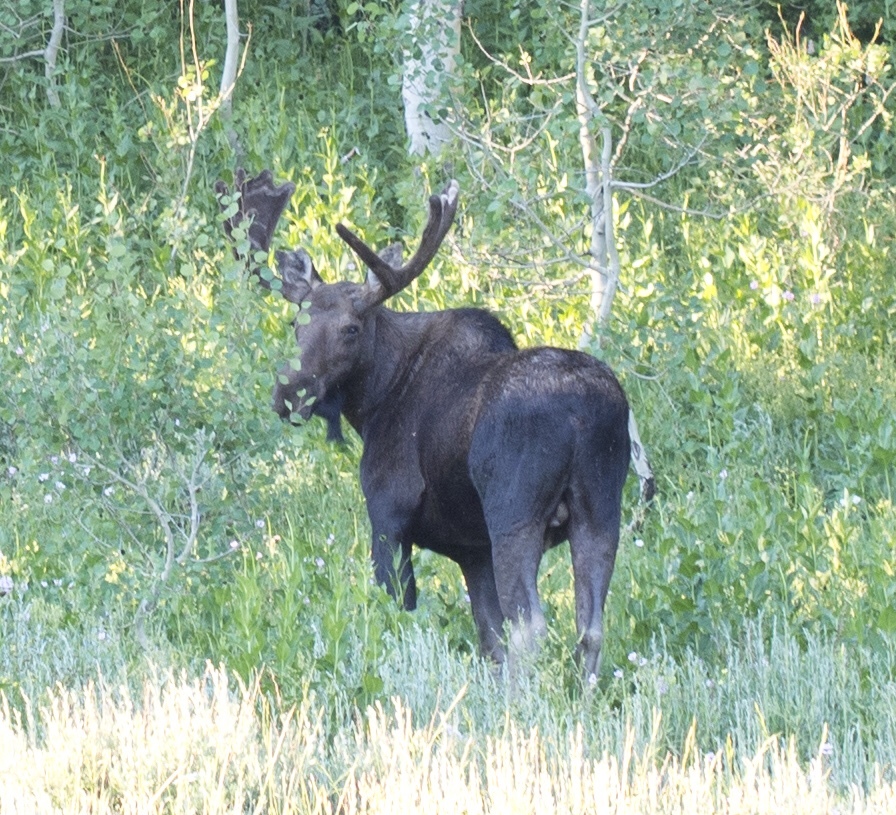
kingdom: Animalia
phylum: Chordata
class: Mammalia
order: Artiodactyla
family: Cervidae
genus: Alces
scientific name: Alces alces
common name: Moose
